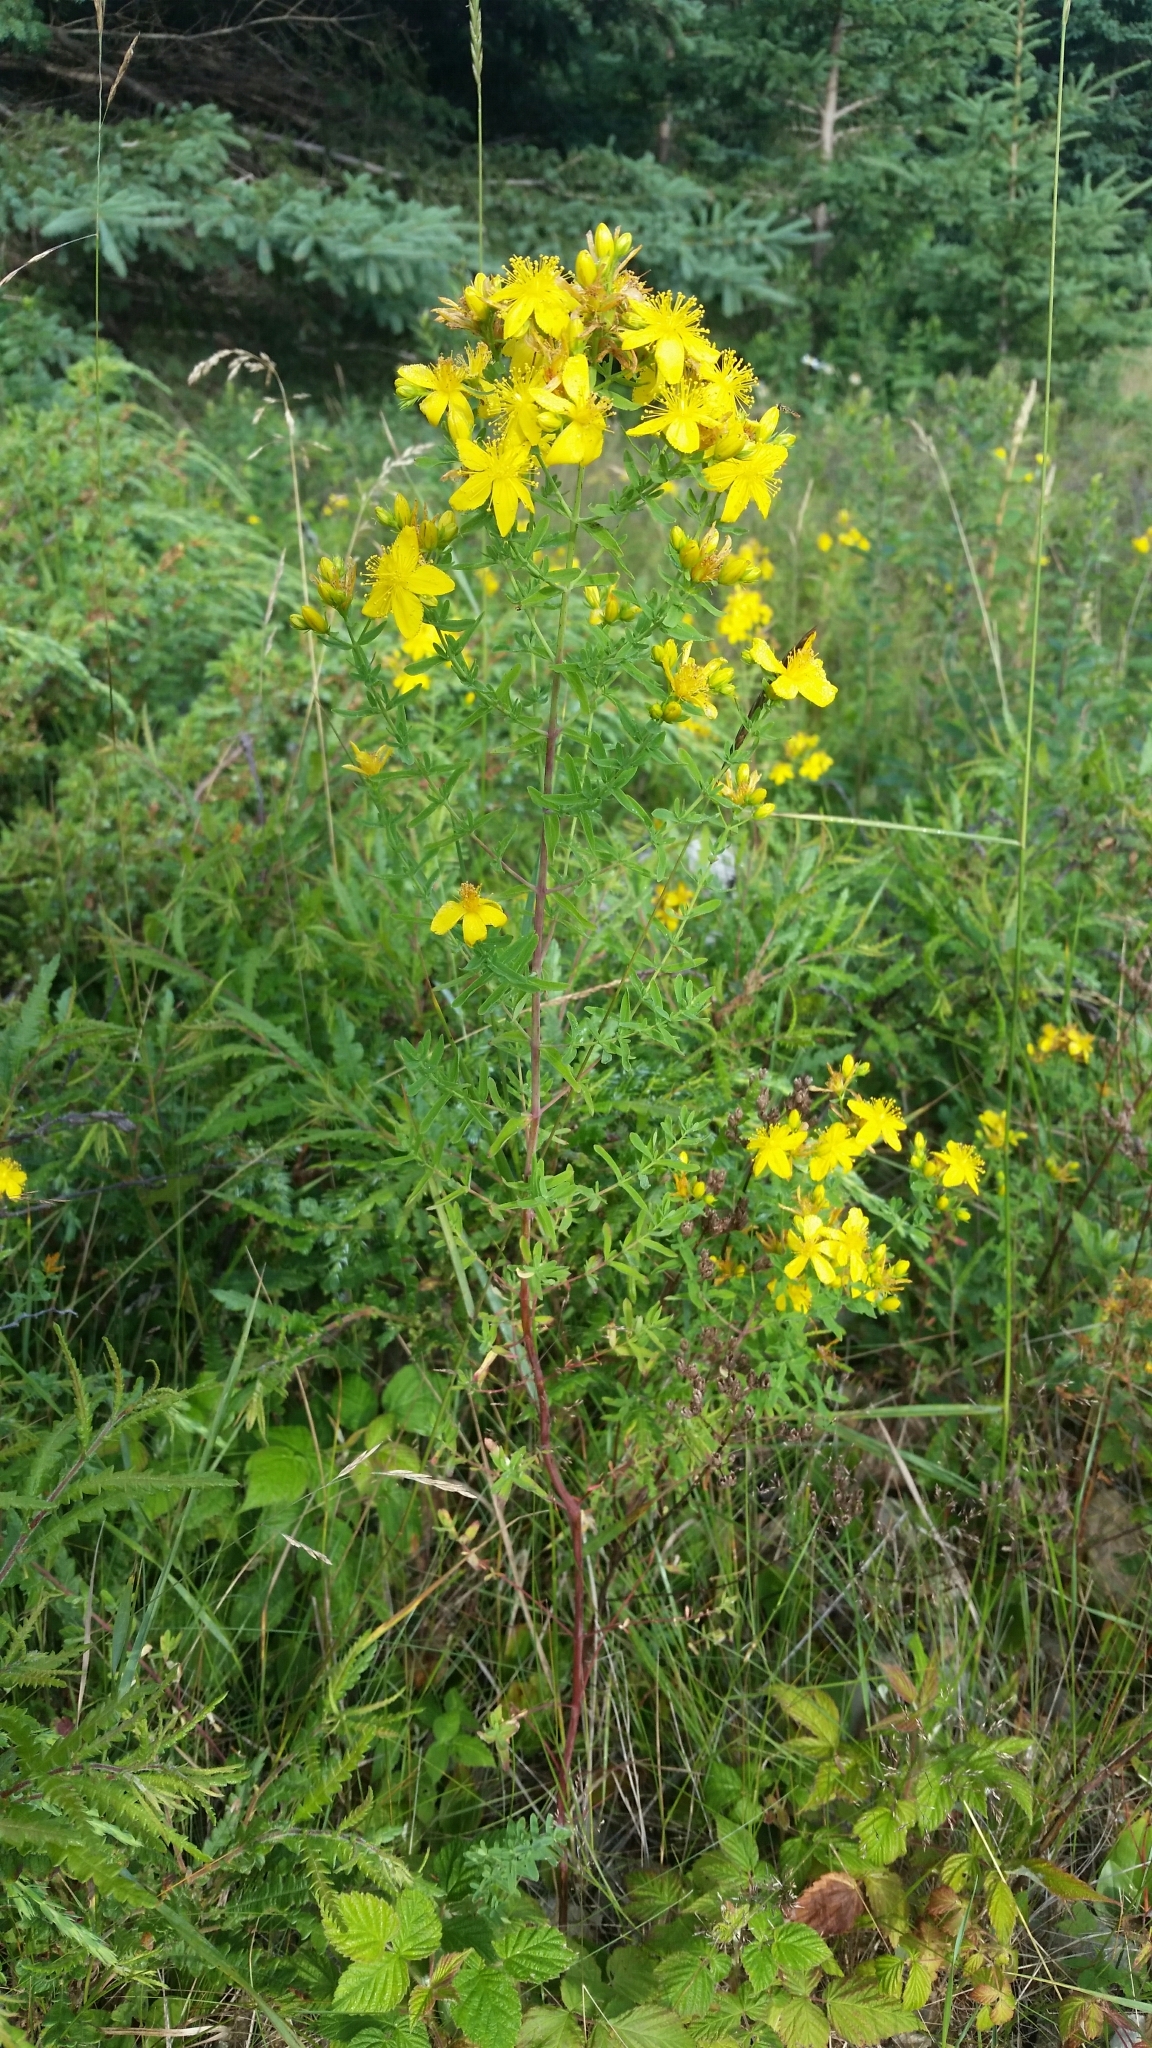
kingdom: Plantae
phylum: Tracheophyta
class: Magnoliopsida
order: Malpighiales
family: Hypericaceae
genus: Hypericum
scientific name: Hypericum perforatum
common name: Common st. johnswort
